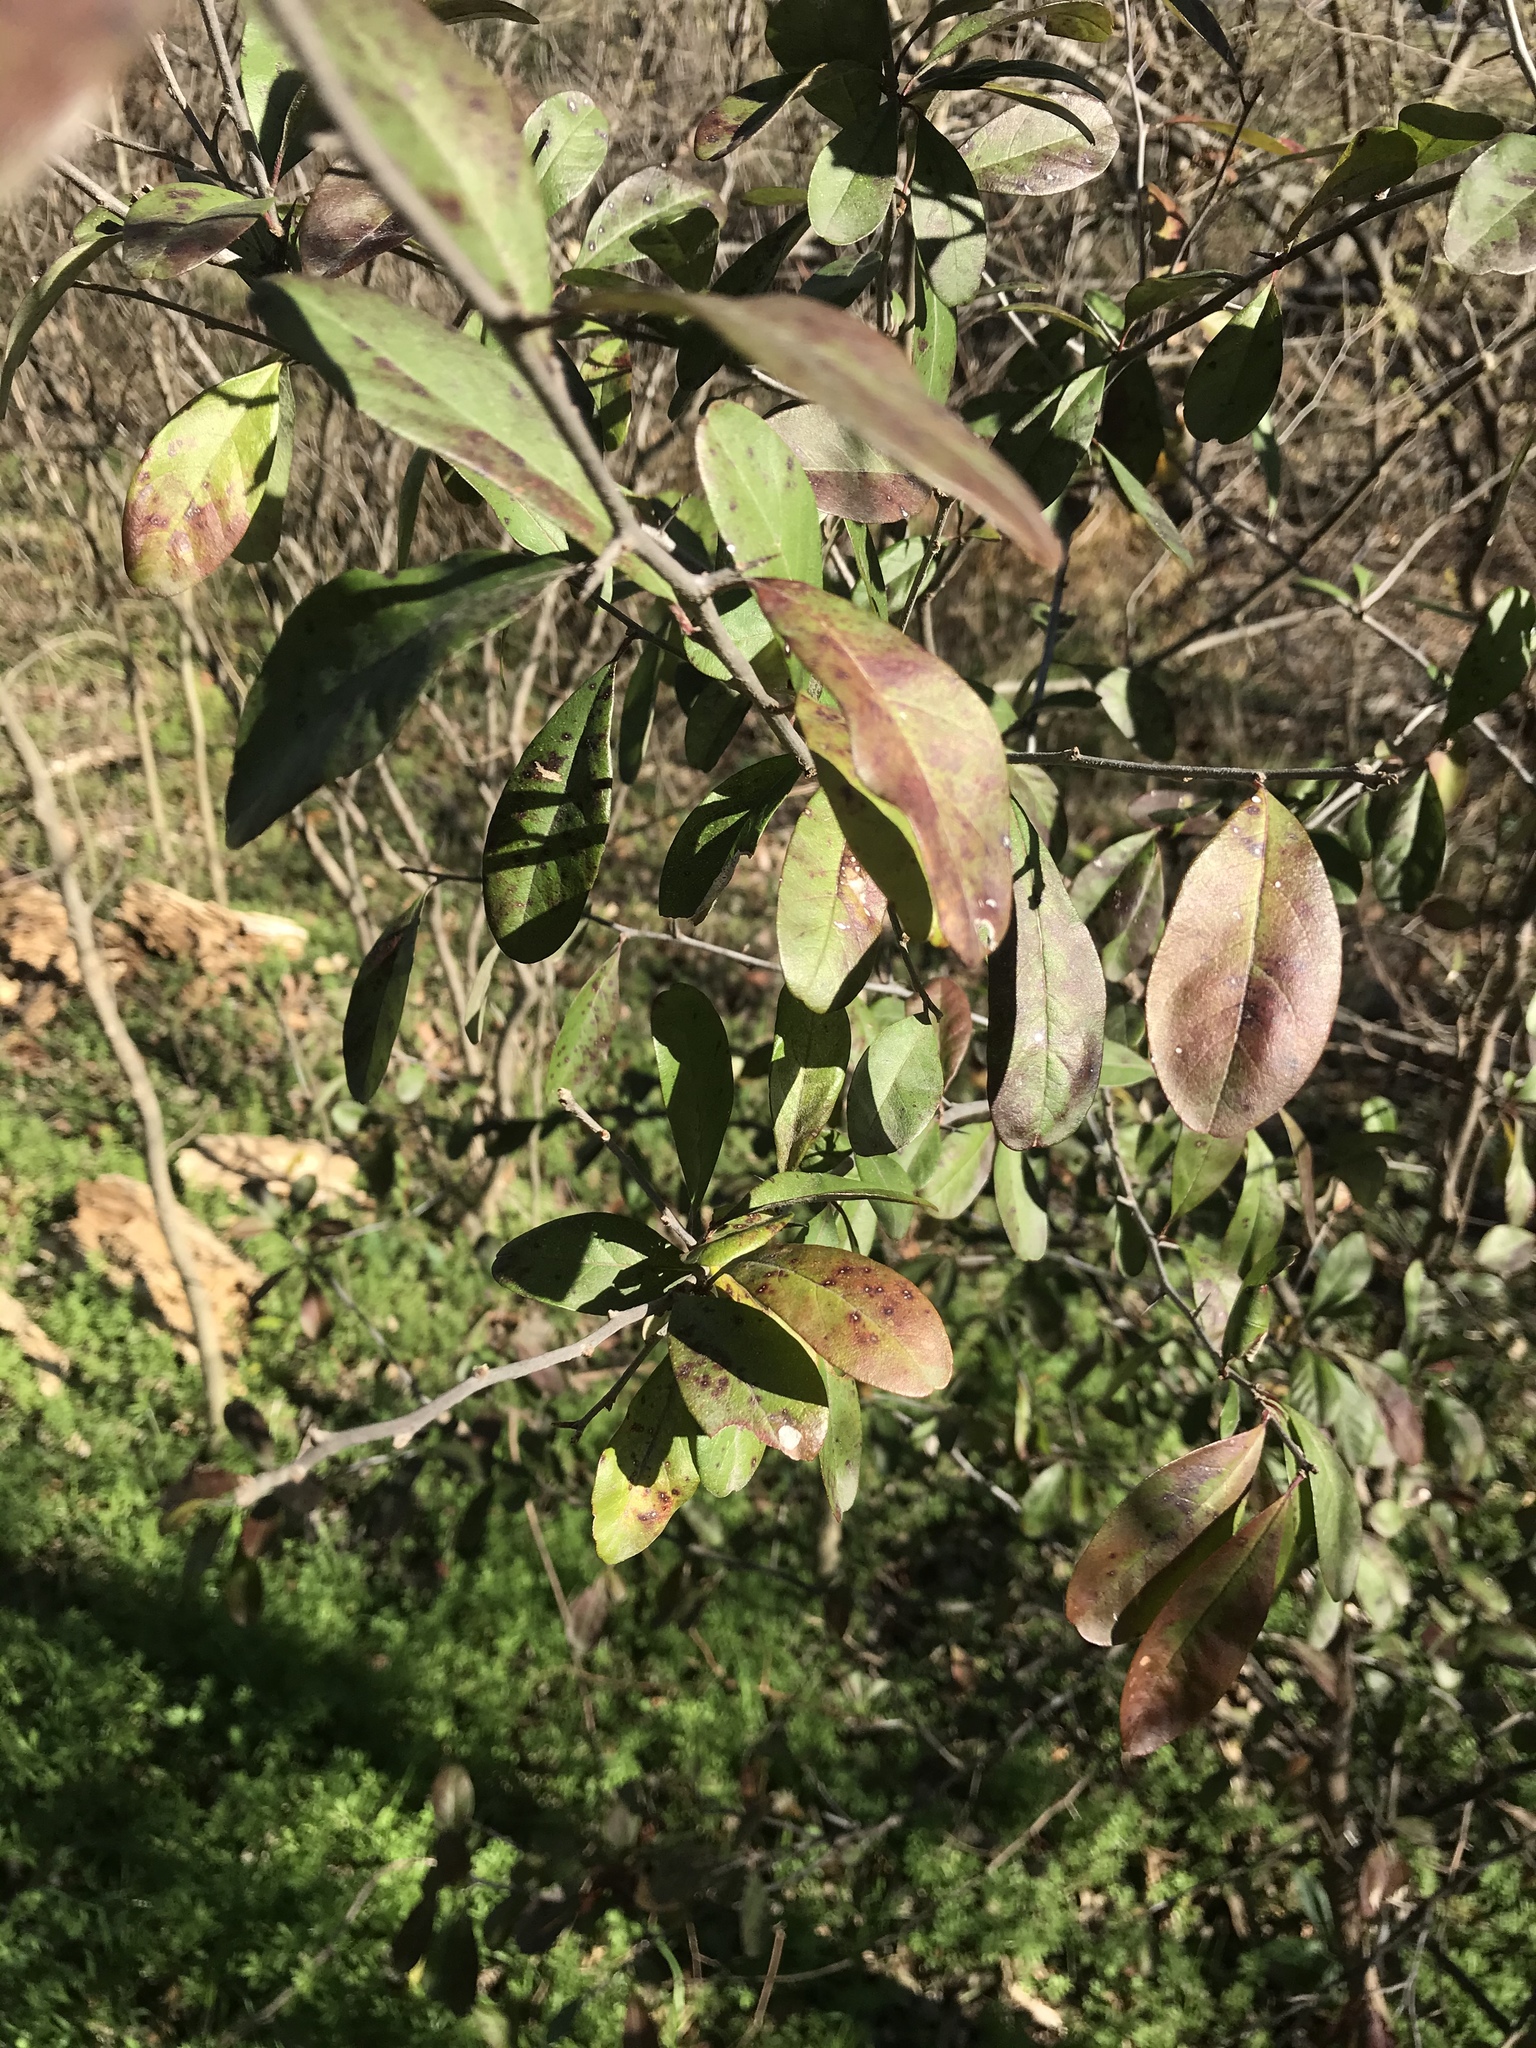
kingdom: Plantae
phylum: Tracheophyta
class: Magnoliopsida
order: Ericales
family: Sapotaceae
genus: Sideroxylon
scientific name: Sideroxylon lanuginosum
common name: Chittamwood
